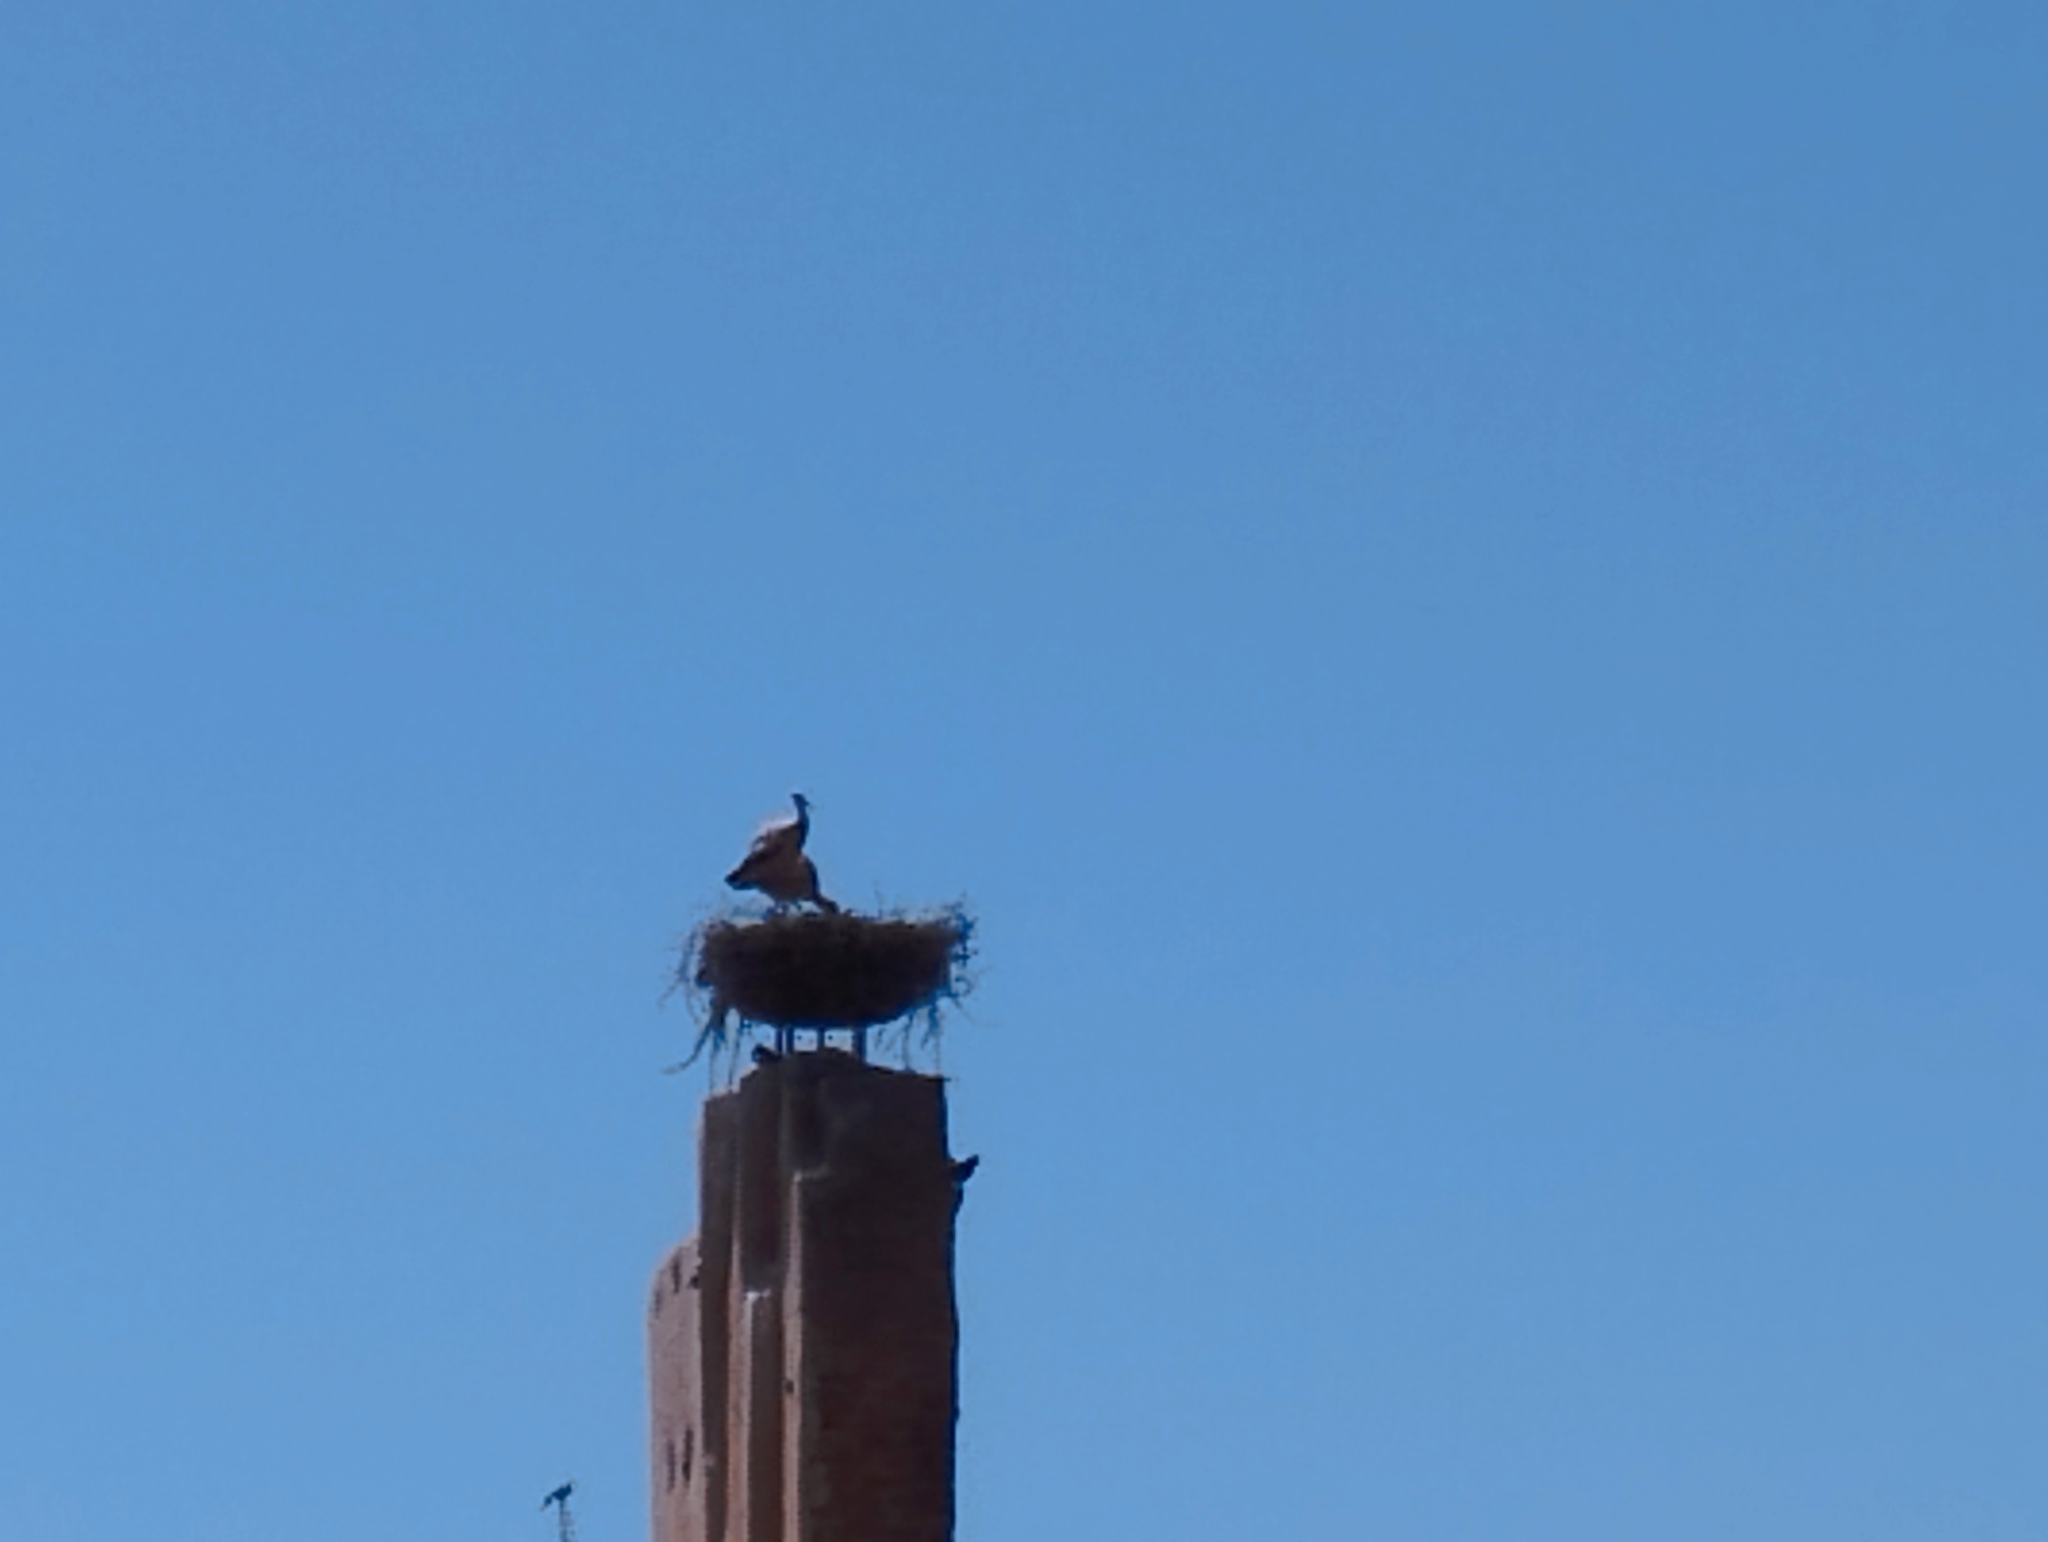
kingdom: Animalia
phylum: Chordata
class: Aves
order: Ciconiiformes
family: Ciconiidae
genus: Ciconia
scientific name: Ciconia ciconia
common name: White stork
